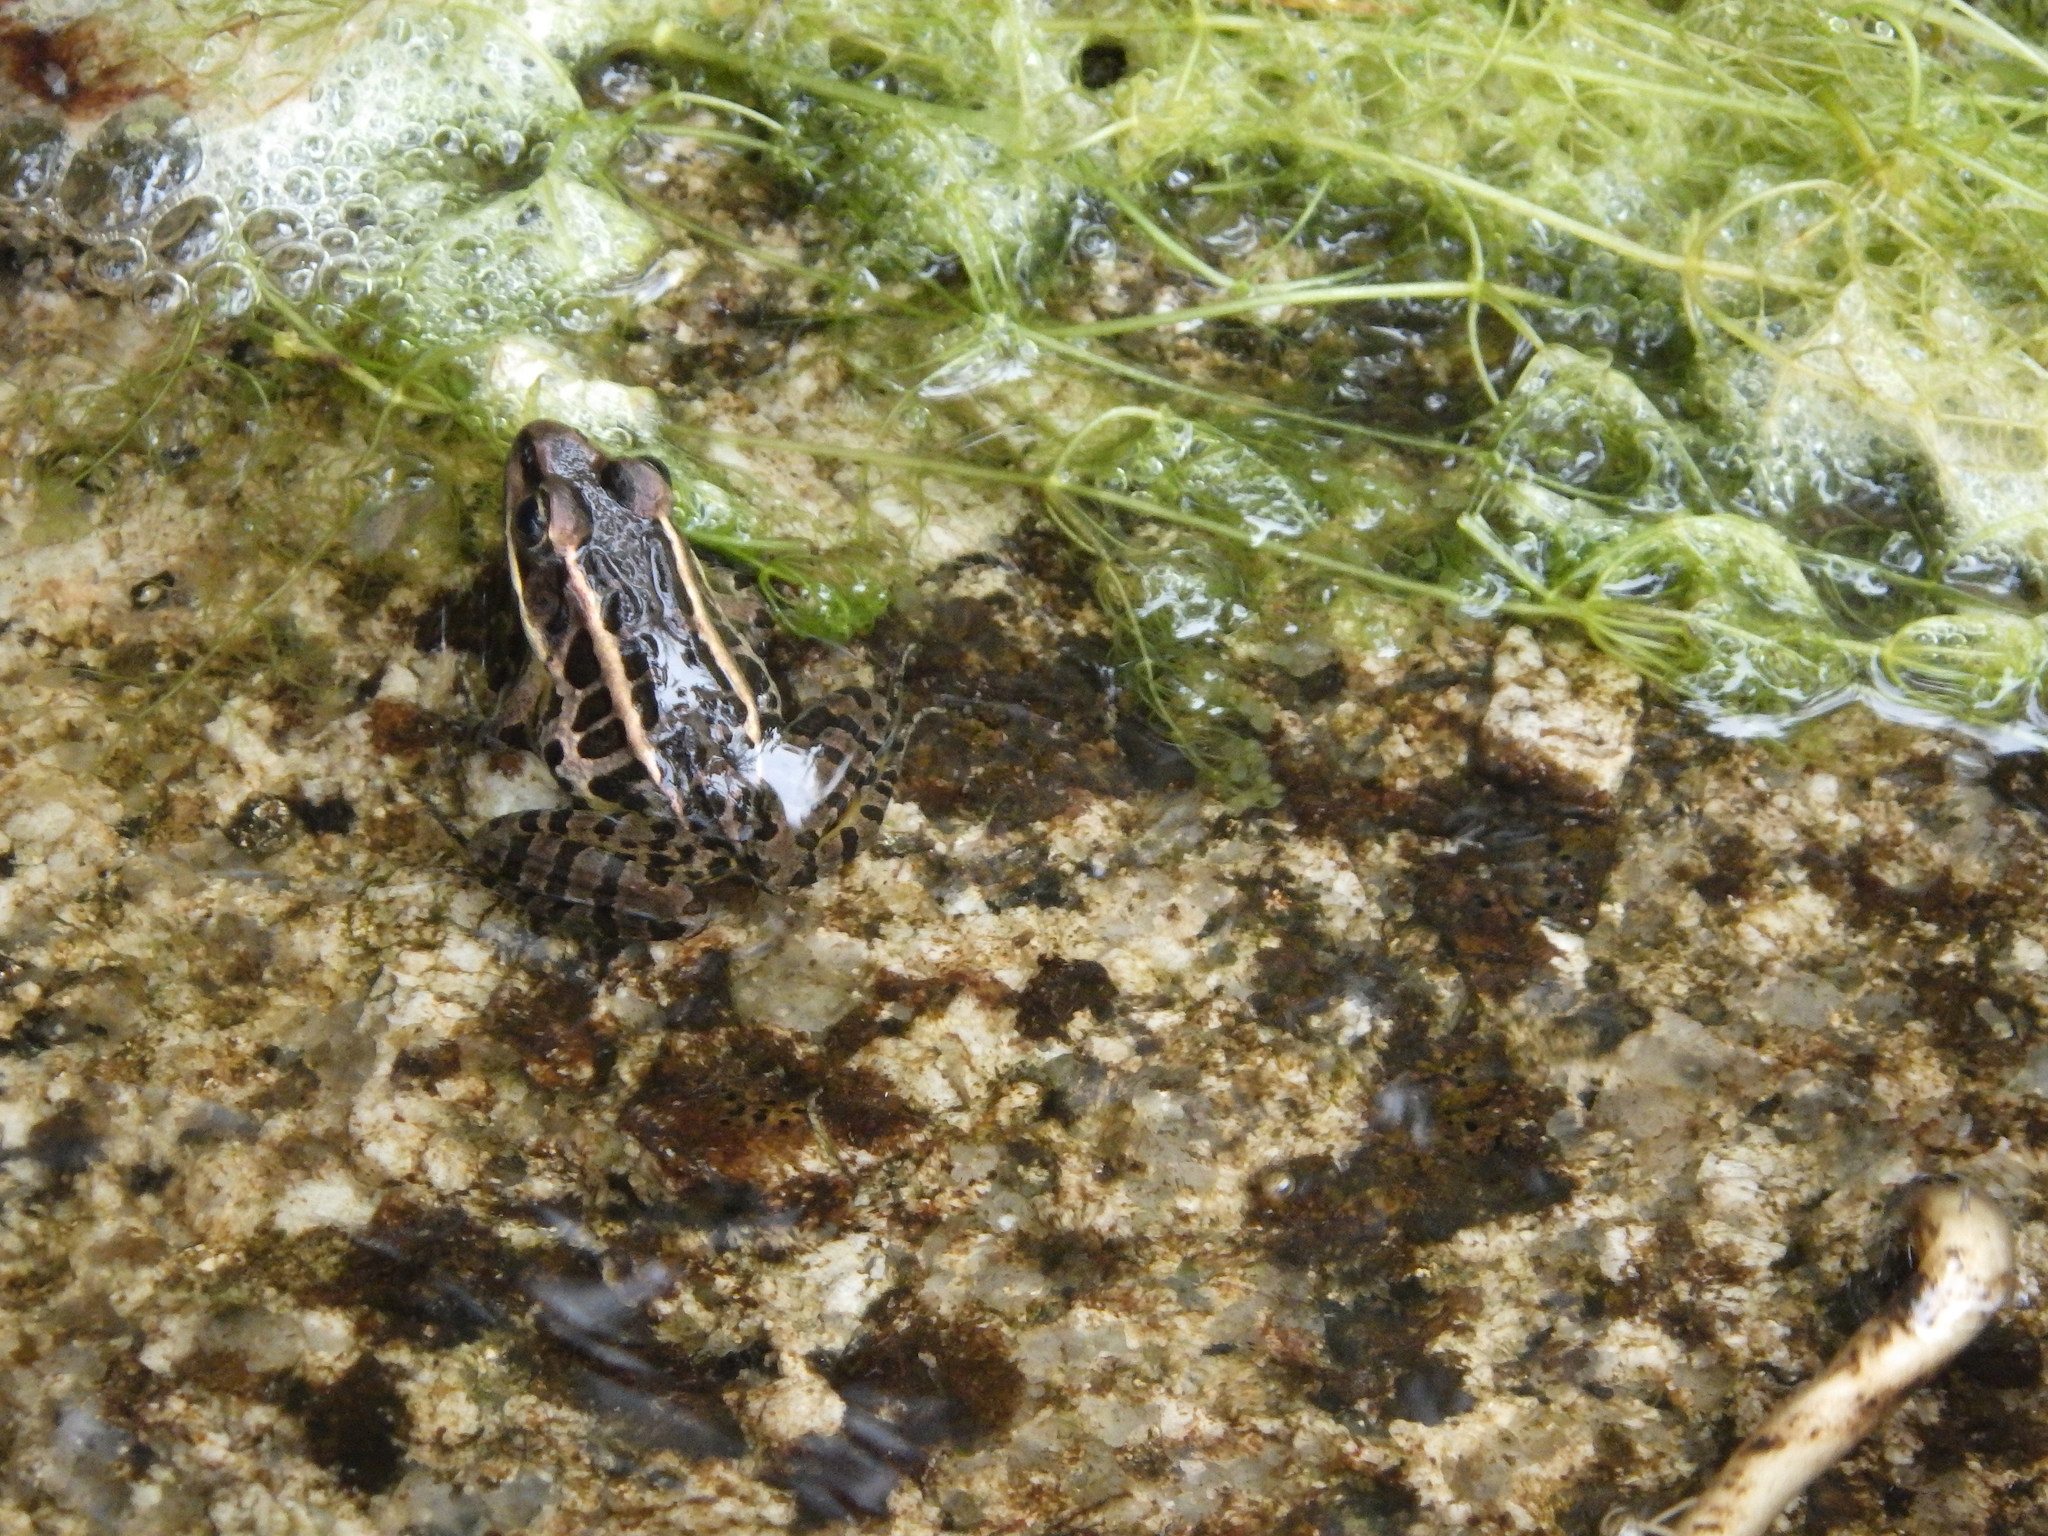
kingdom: Animalia
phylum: Chordata
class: Amphibia
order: Anura
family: Ranidae
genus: Lithobates
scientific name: Lithobates palustris
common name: Pickerel frog
